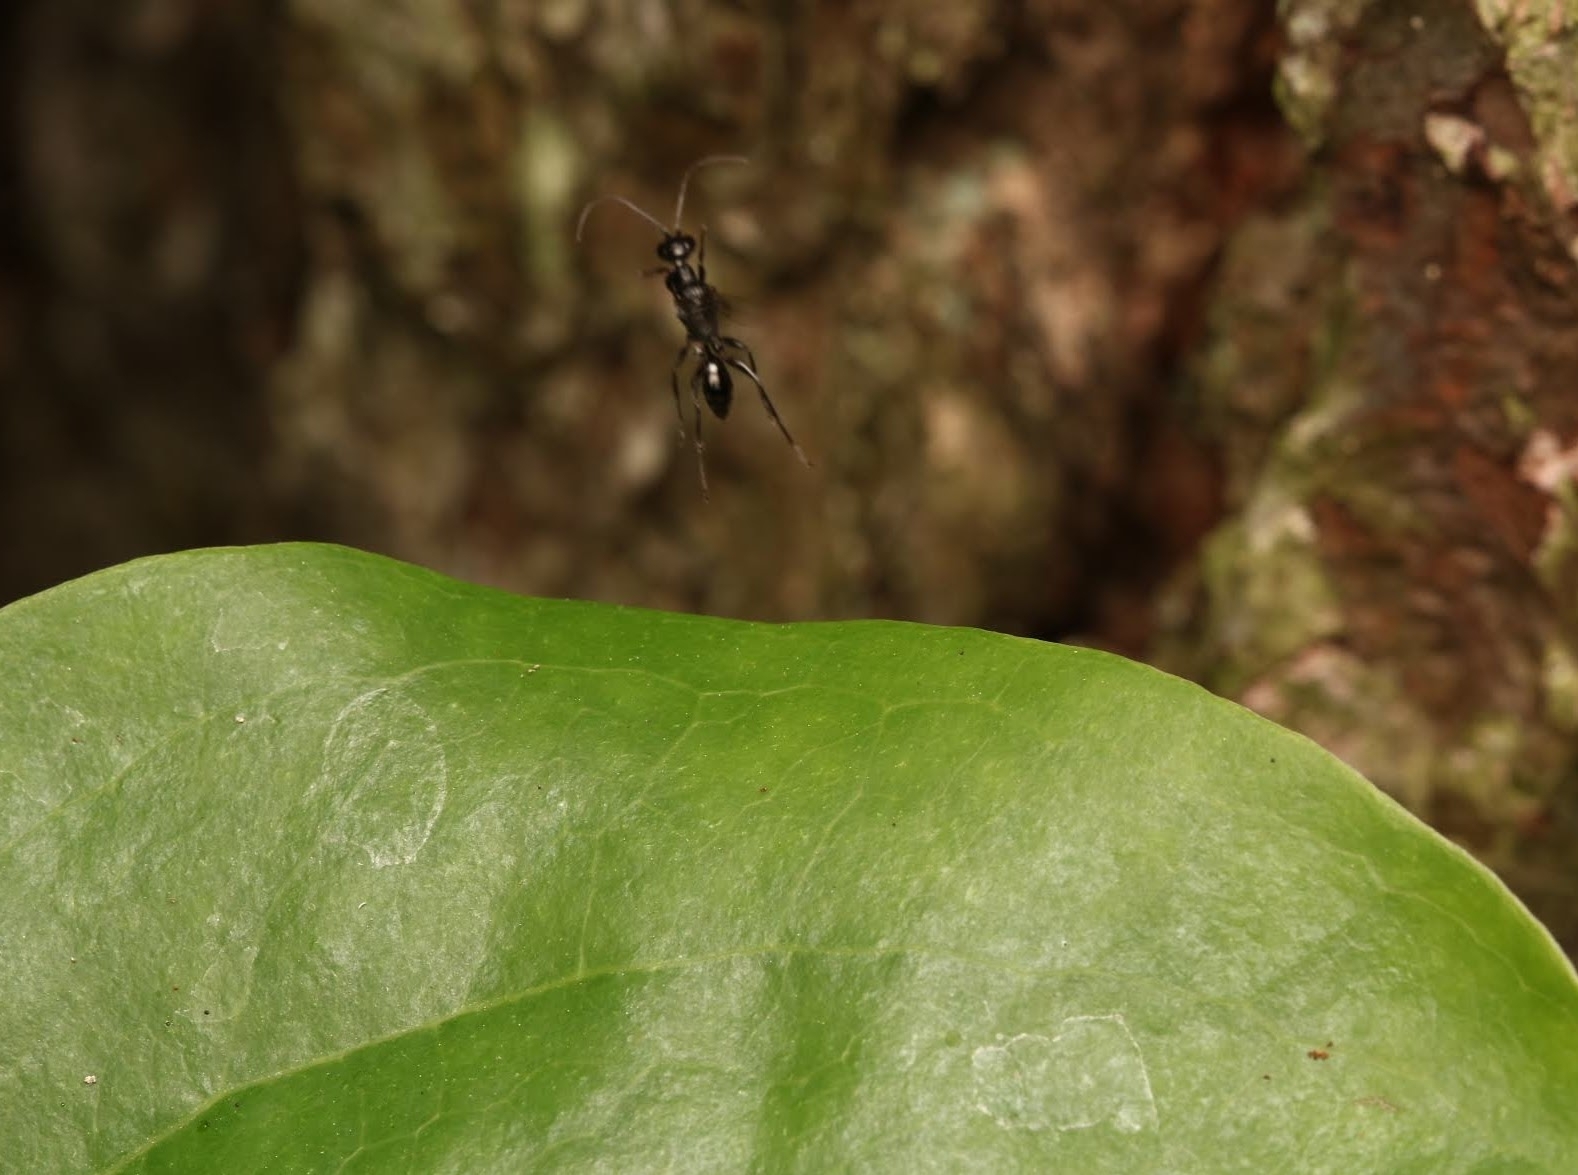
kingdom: Animalia
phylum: Arthropoda
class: Insecta
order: Hymenoptera
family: Ampulicidae
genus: Ampulex
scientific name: Ampulex canaliculata
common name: Cockroach wasp
